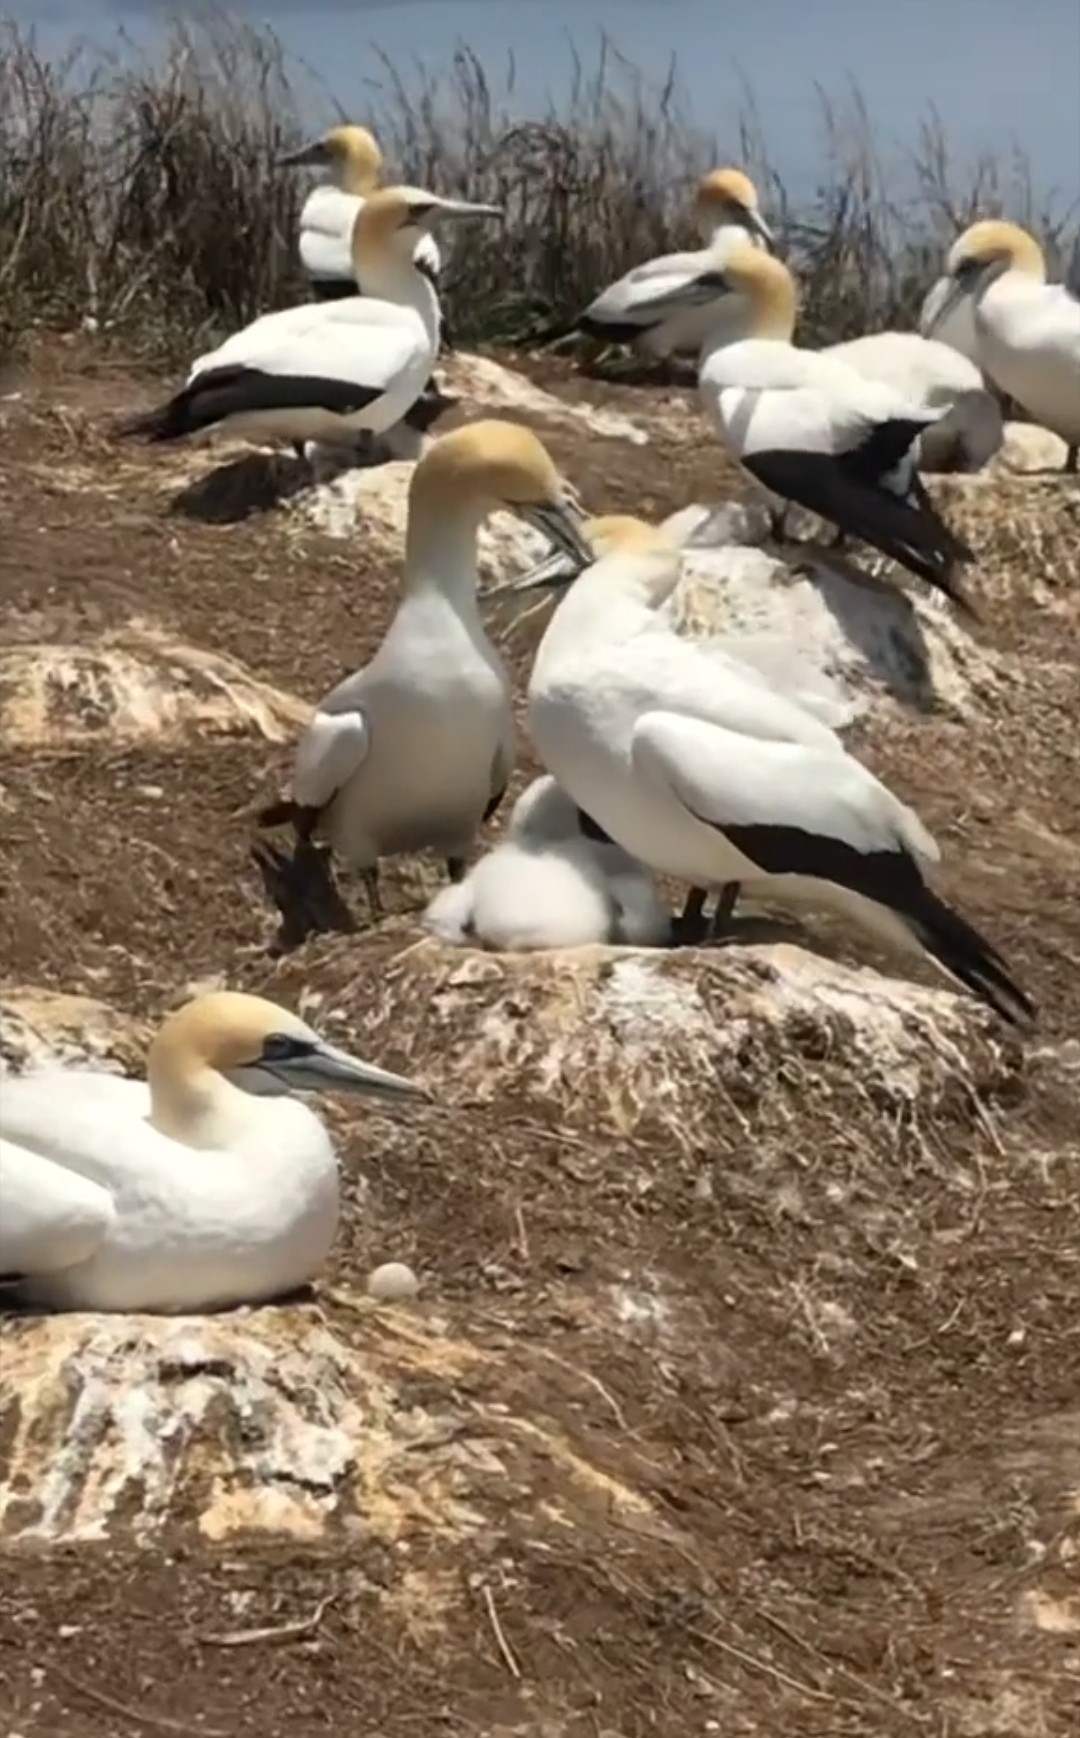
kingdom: Animalia
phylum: Chordata
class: Aves
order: Suliformes
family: Sulidae
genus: Morus
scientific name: Morus serrator
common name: Australasian gannet
